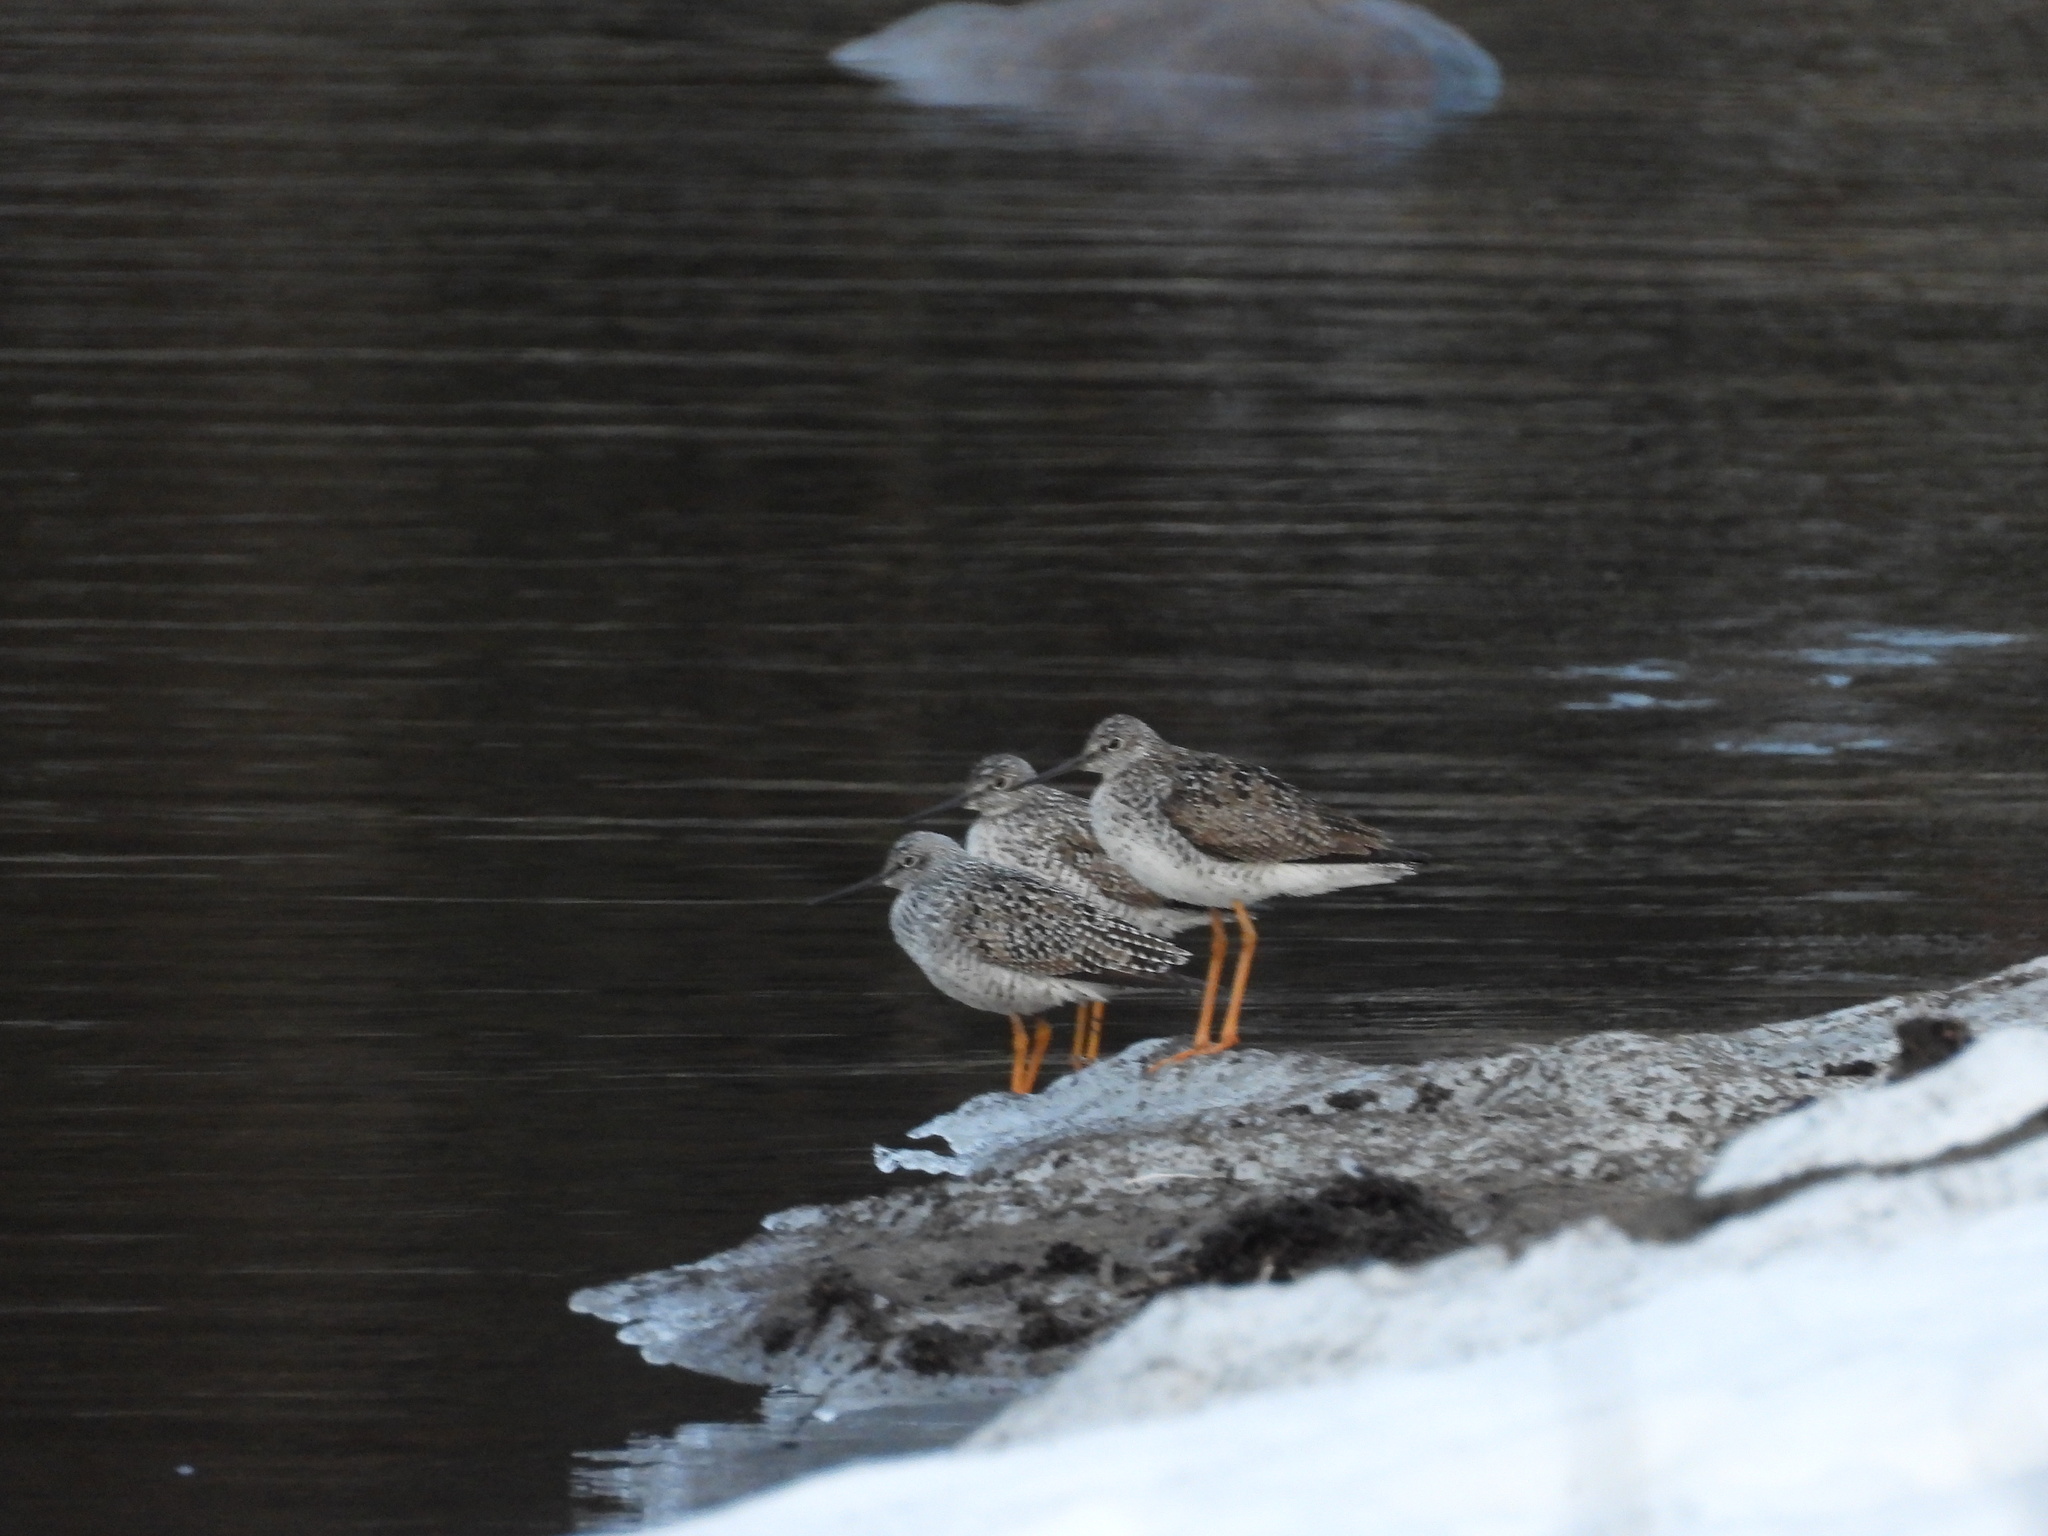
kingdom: Animalia
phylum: Chordata
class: Aves
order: Charadriiformes
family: Scolopacidae
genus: Tringa
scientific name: Tringa melanoleuca
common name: Greater yellowlegs
